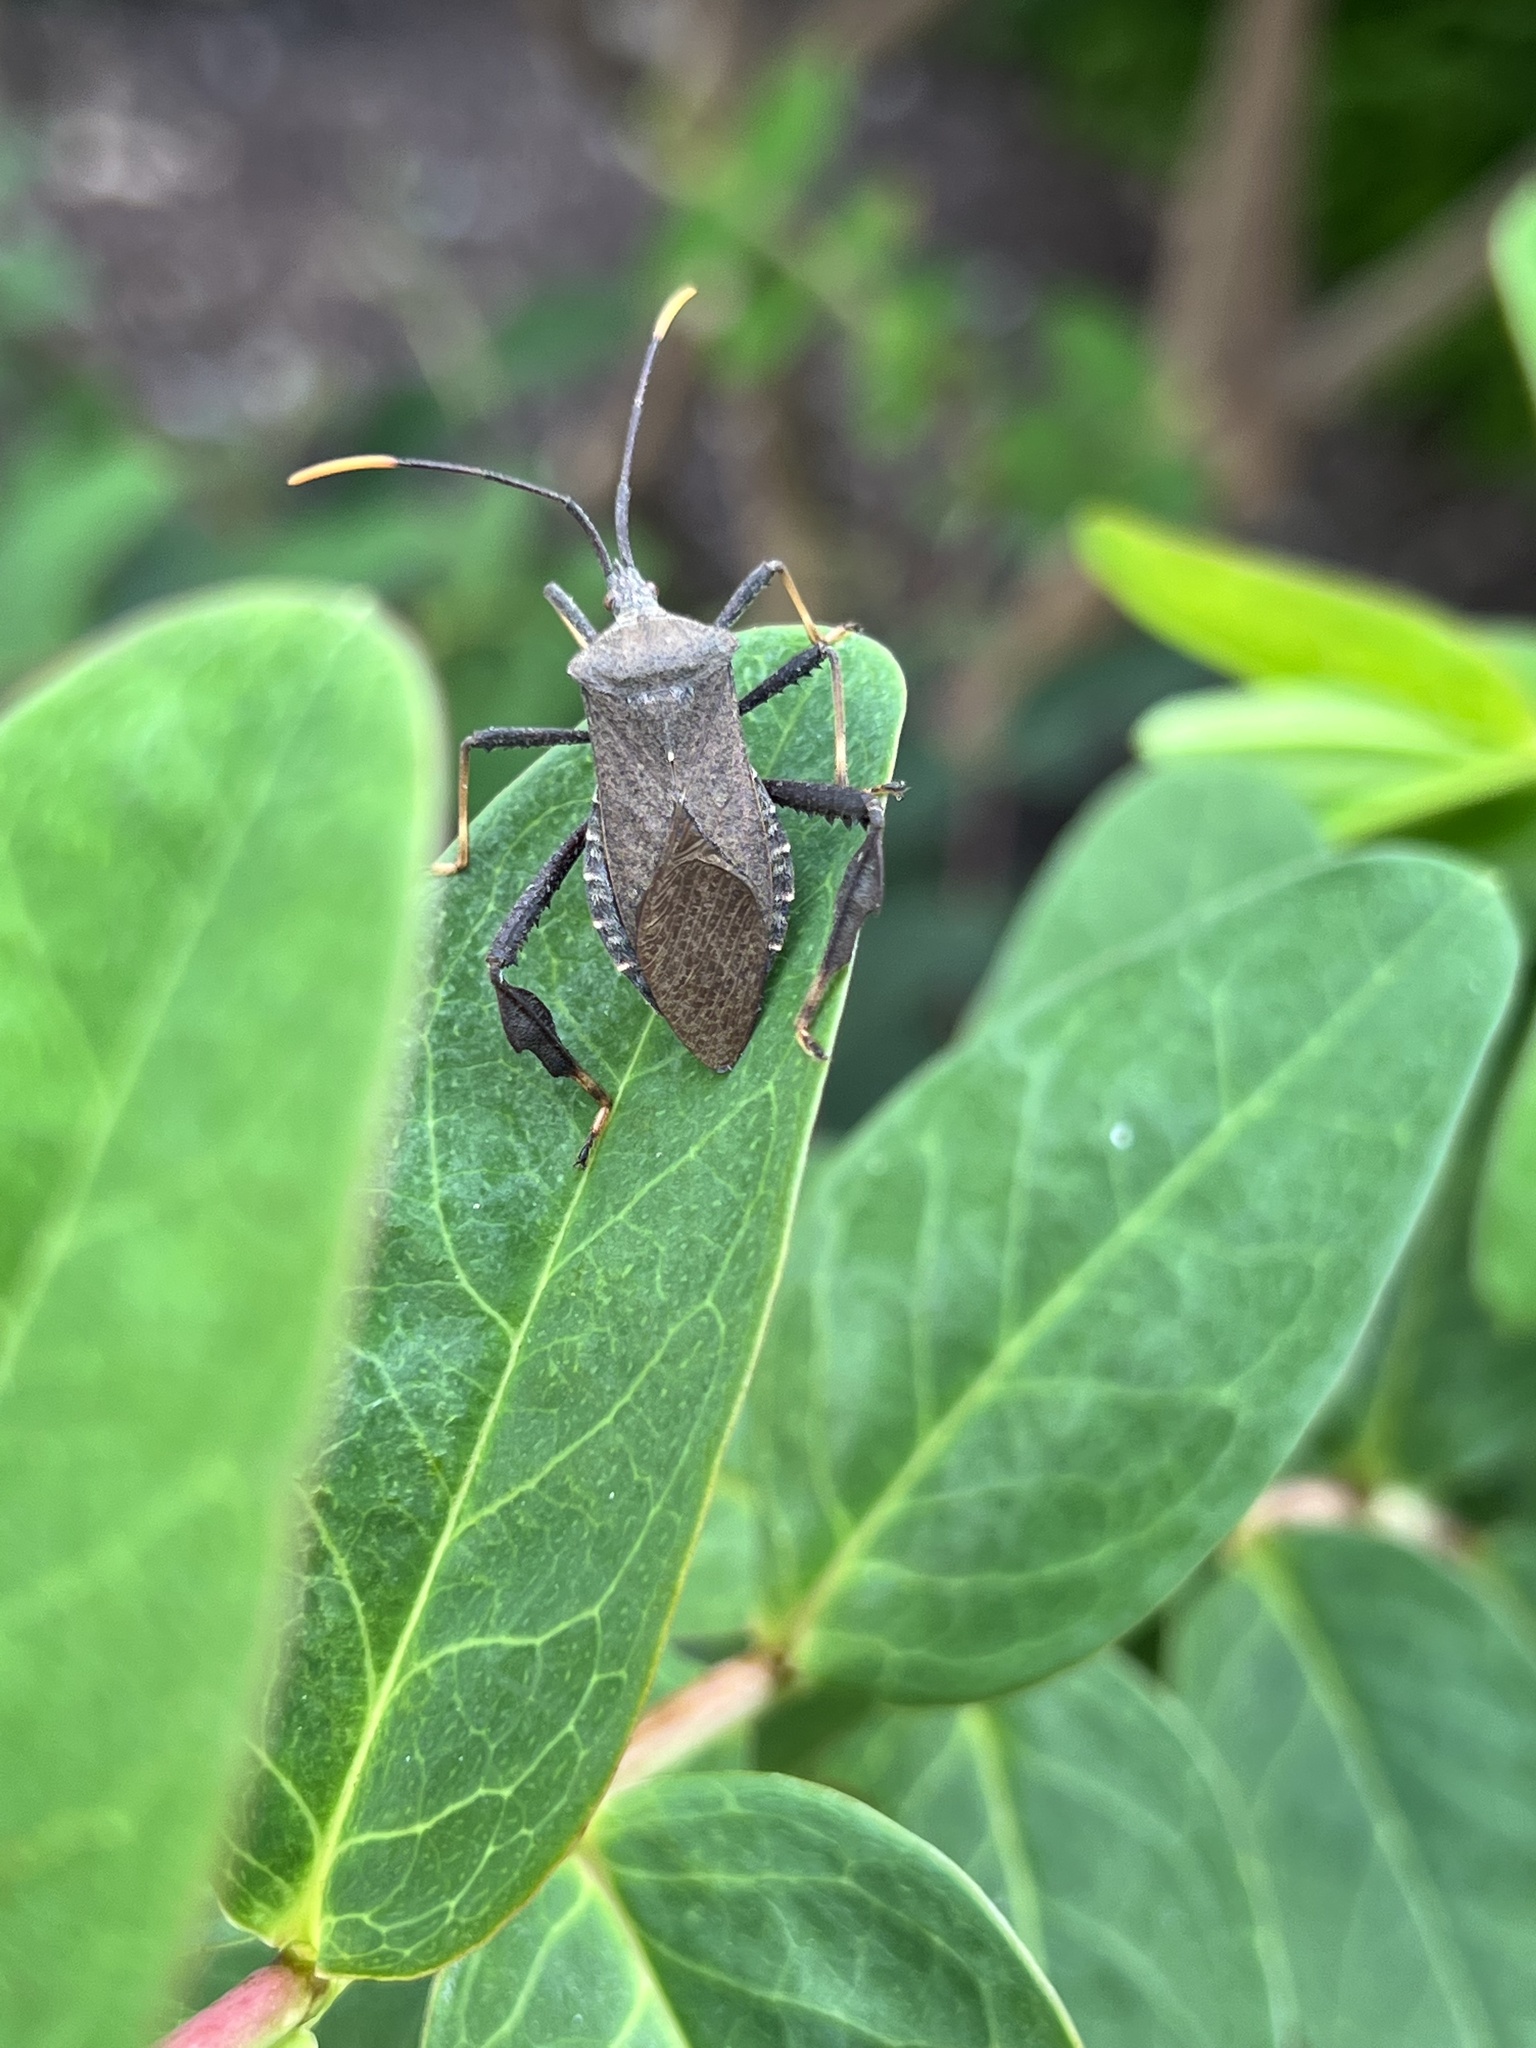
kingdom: Animalia
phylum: Arthropoda
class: Insecta
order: Hemiptera
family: Coreidae
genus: Acanthocephala
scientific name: Acanthocephala terminalis
